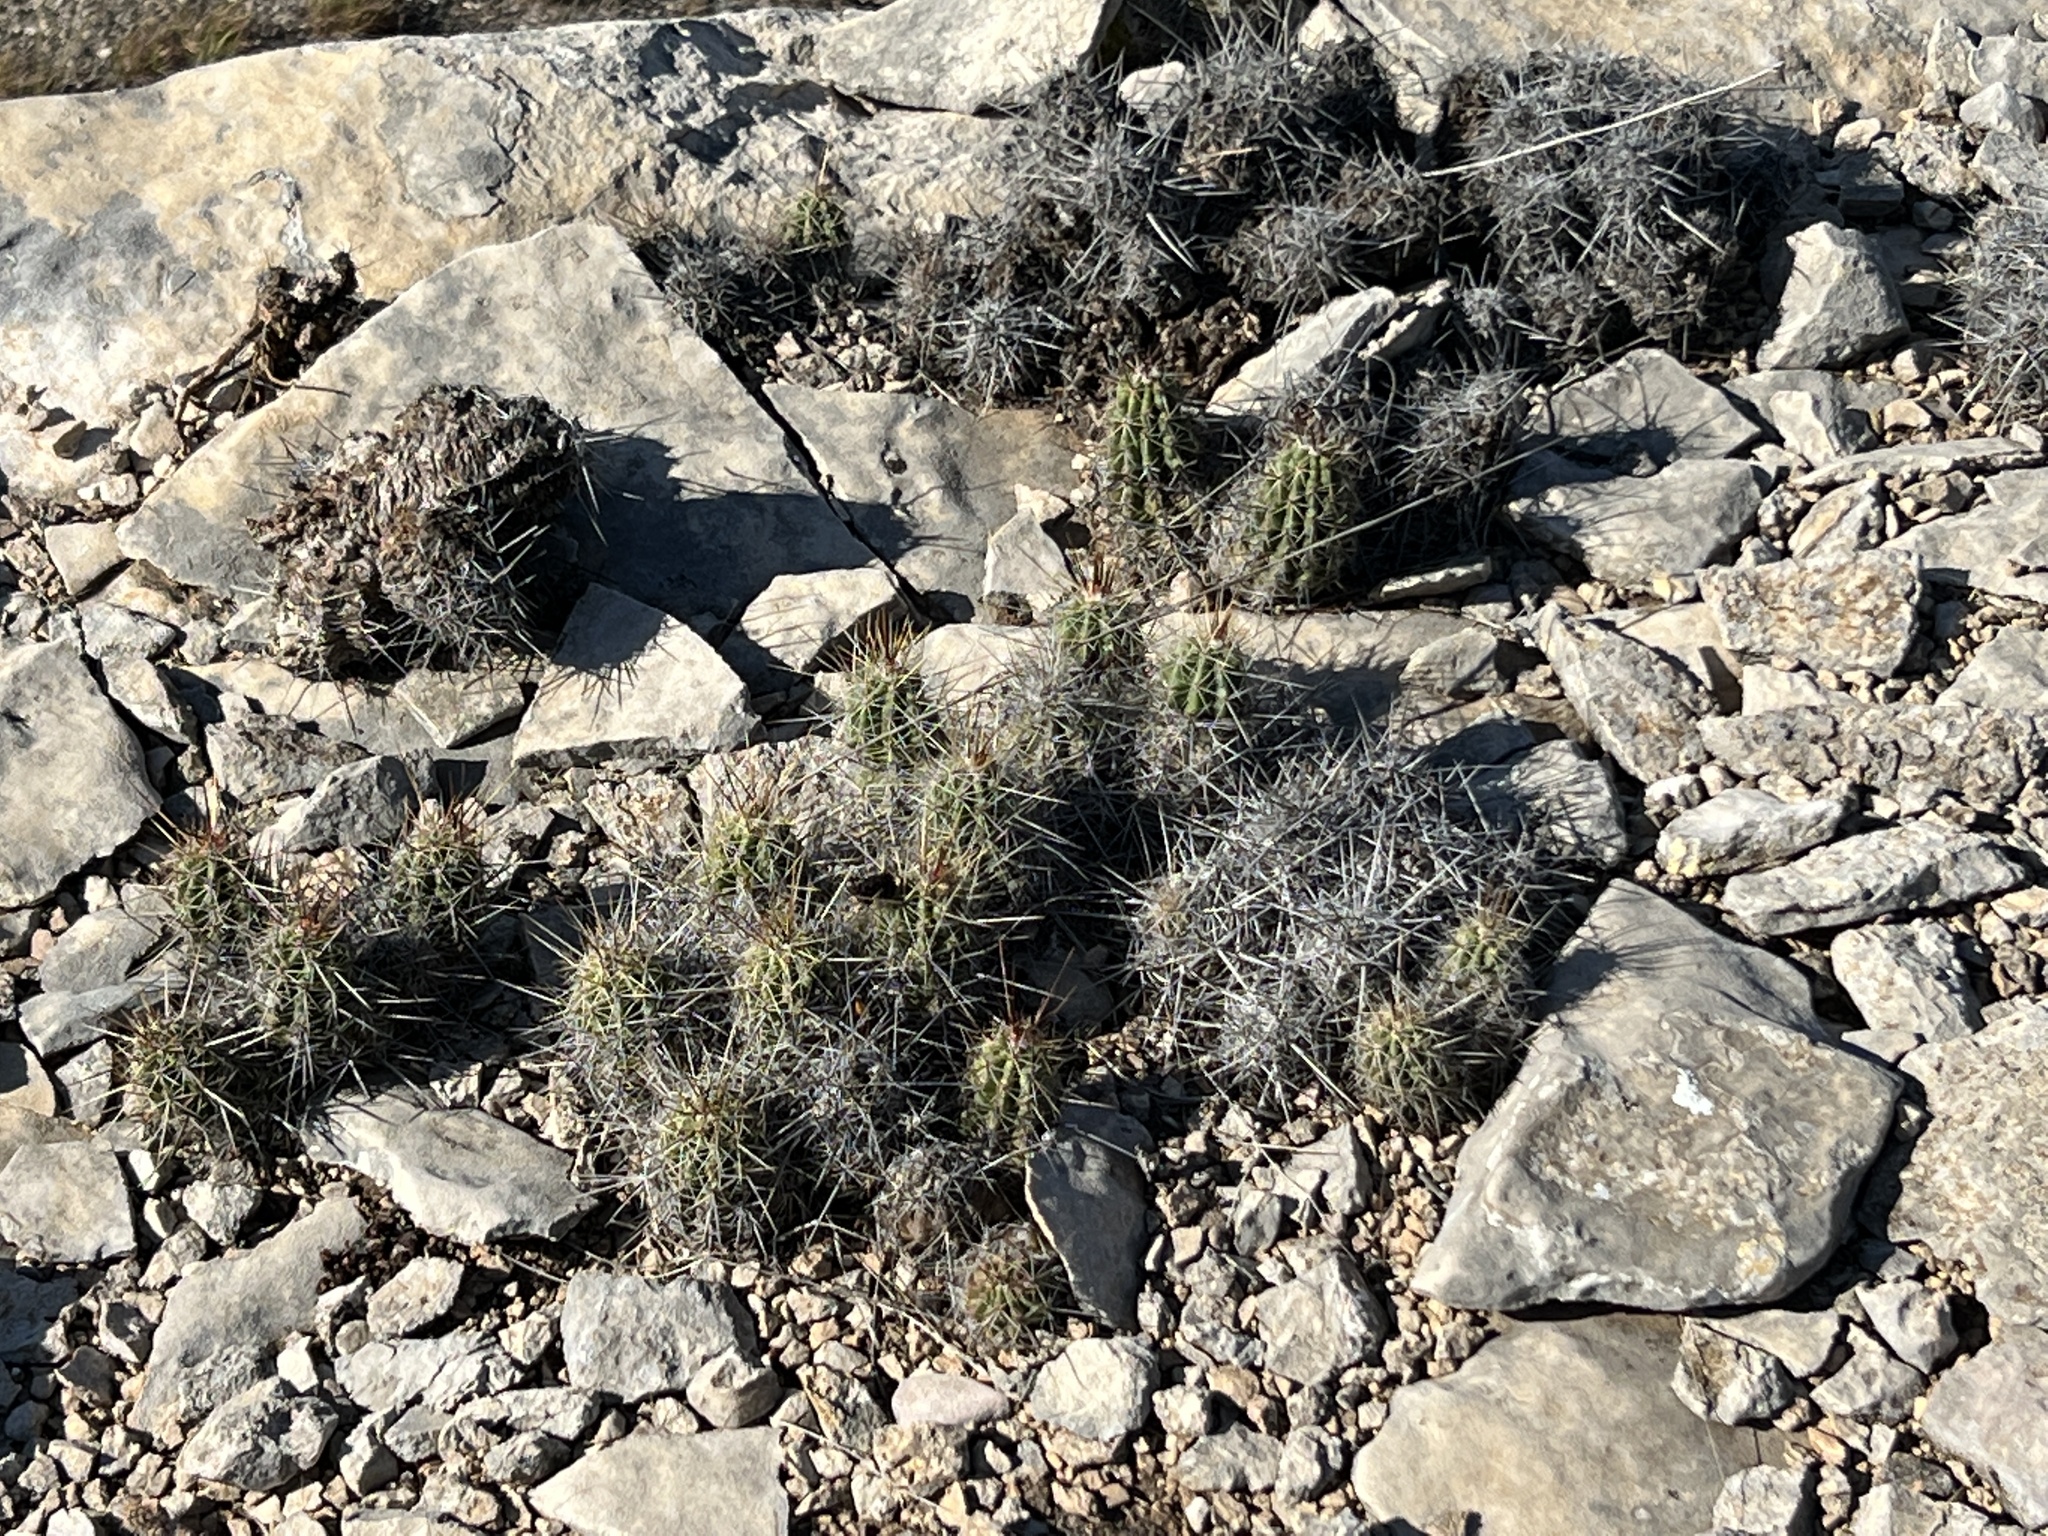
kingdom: Plantae
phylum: Tracheophyta
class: Magnoliopsida
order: Caryophyllales
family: Cactaceae
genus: Echinocereus
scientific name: Echinocereus enneacanthus
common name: Pitaya
